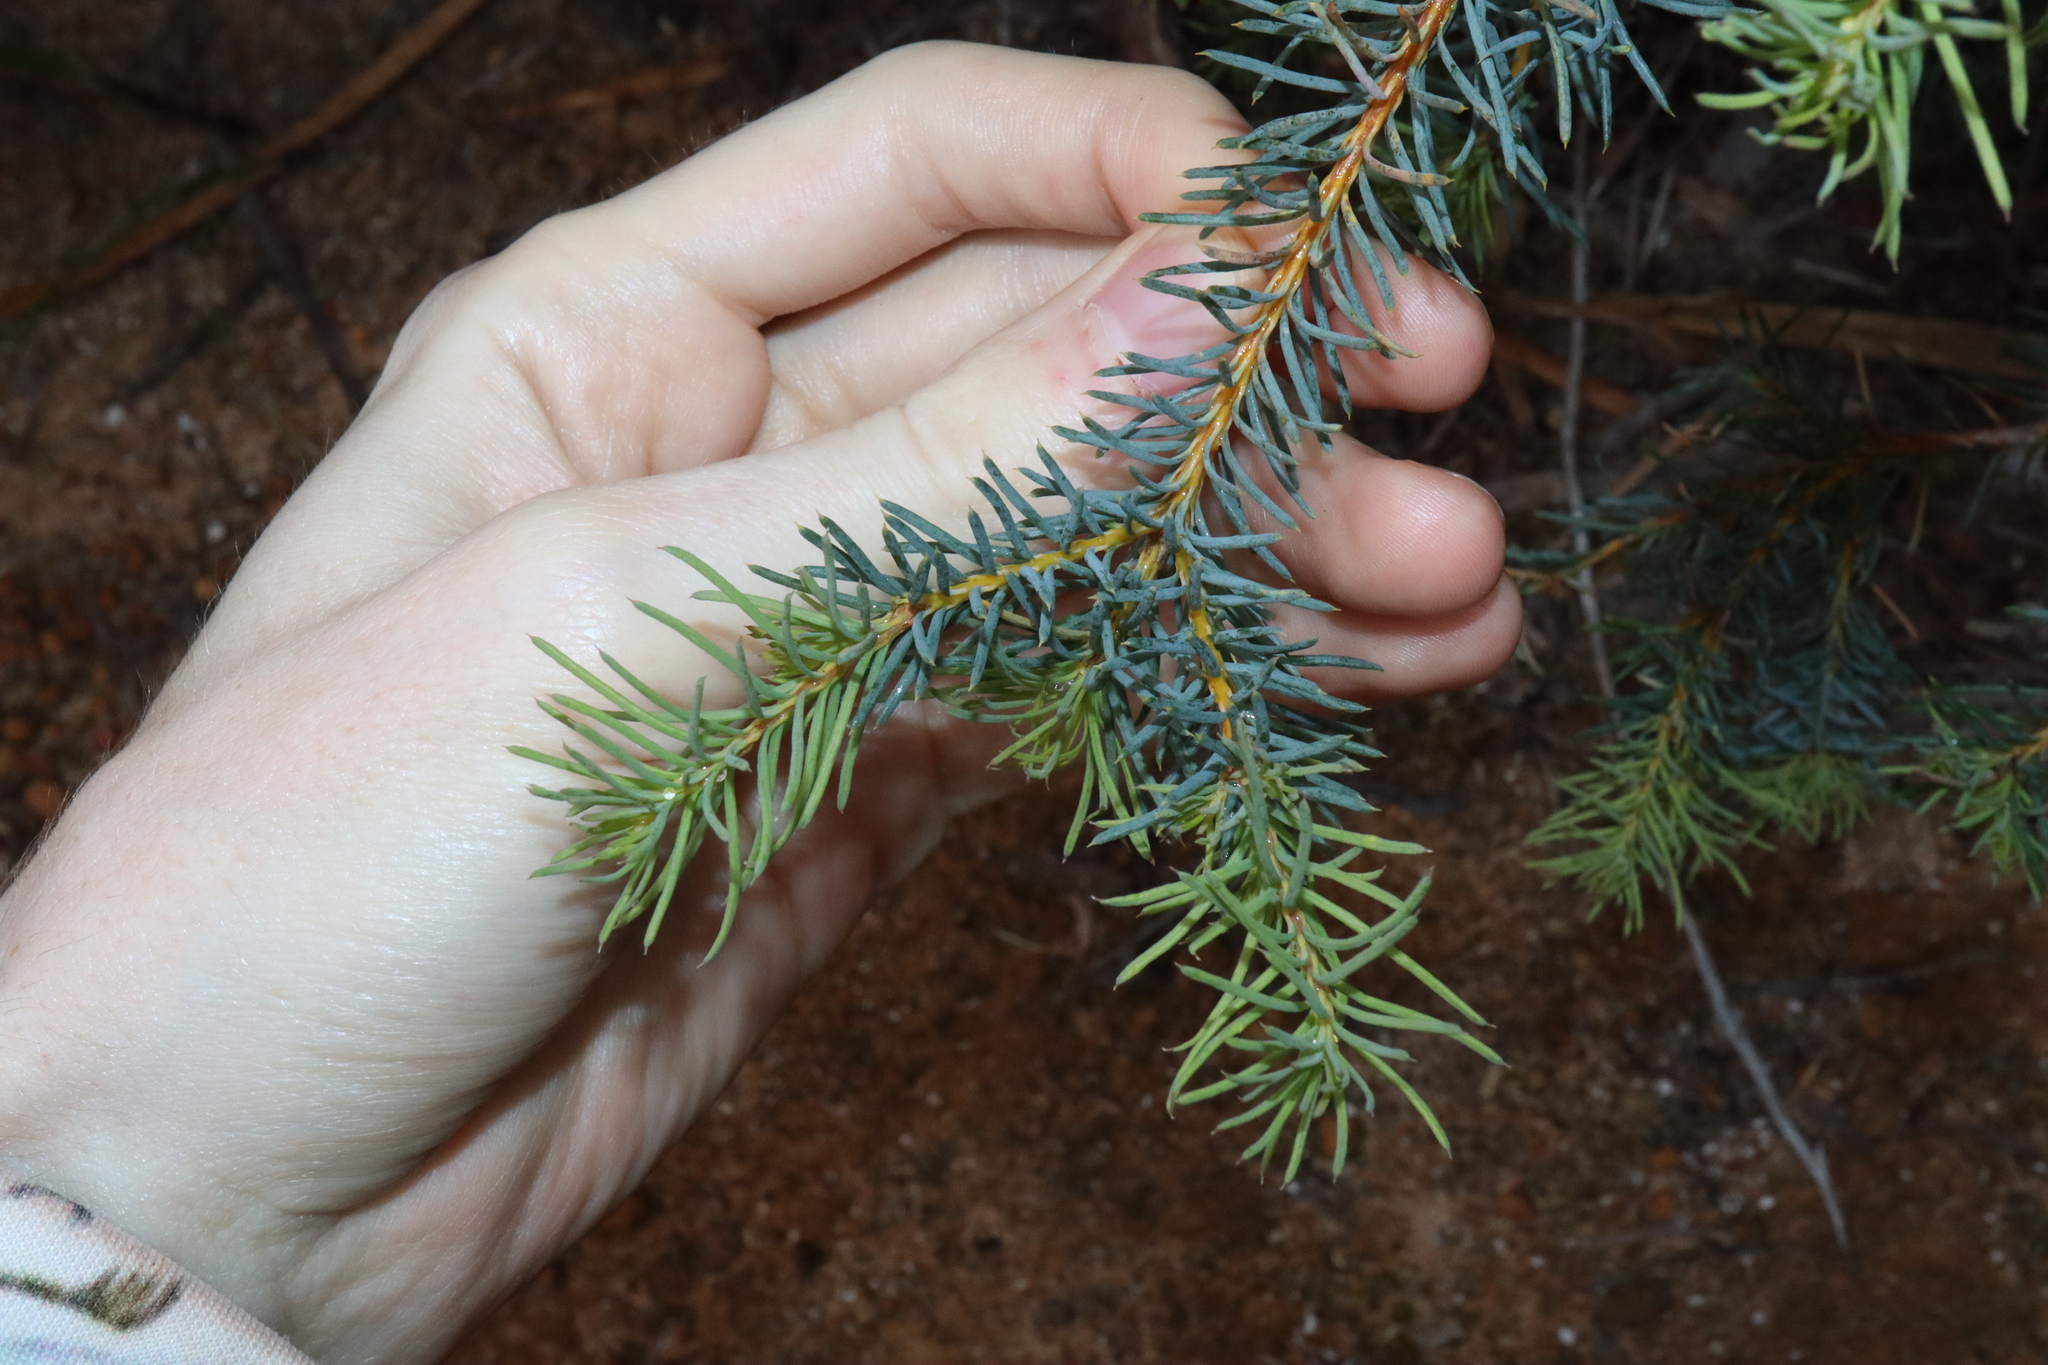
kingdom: Plantae
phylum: Tracheophyta
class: Magnoliopsida
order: Proteales
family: Proteaceae
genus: Banksia
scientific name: Banksia nutans
